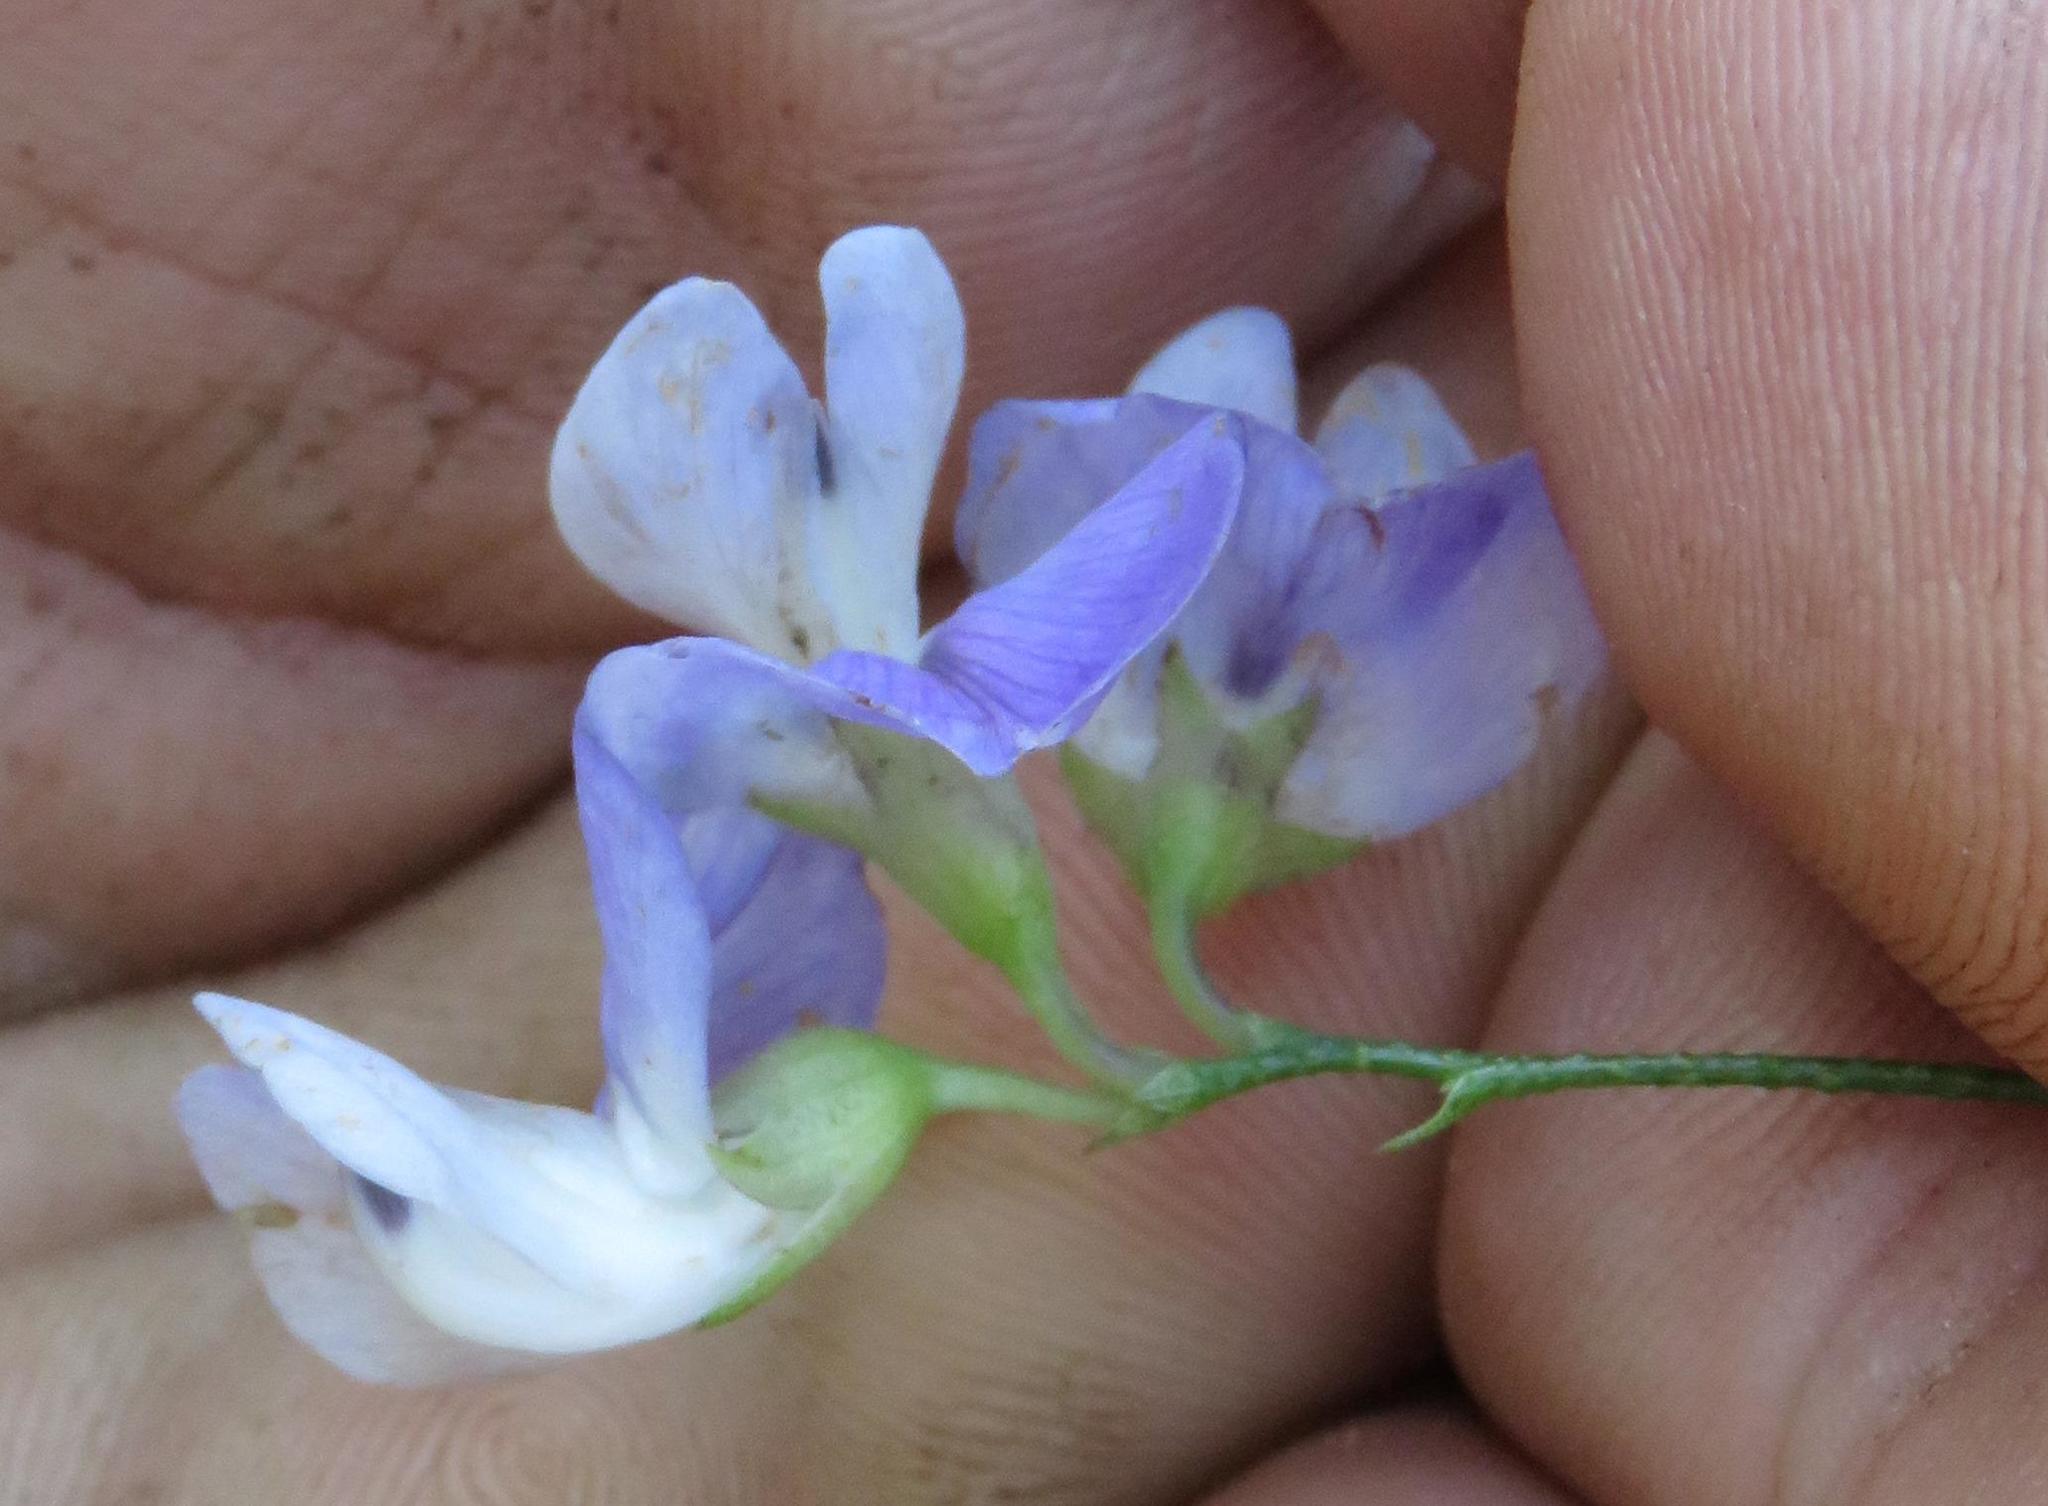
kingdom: Plantae
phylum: Tracheophyta
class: Magnoliopsida
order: Fabales
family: Fabaceae
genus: Psoralea
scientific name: Psoralea verrucosa
